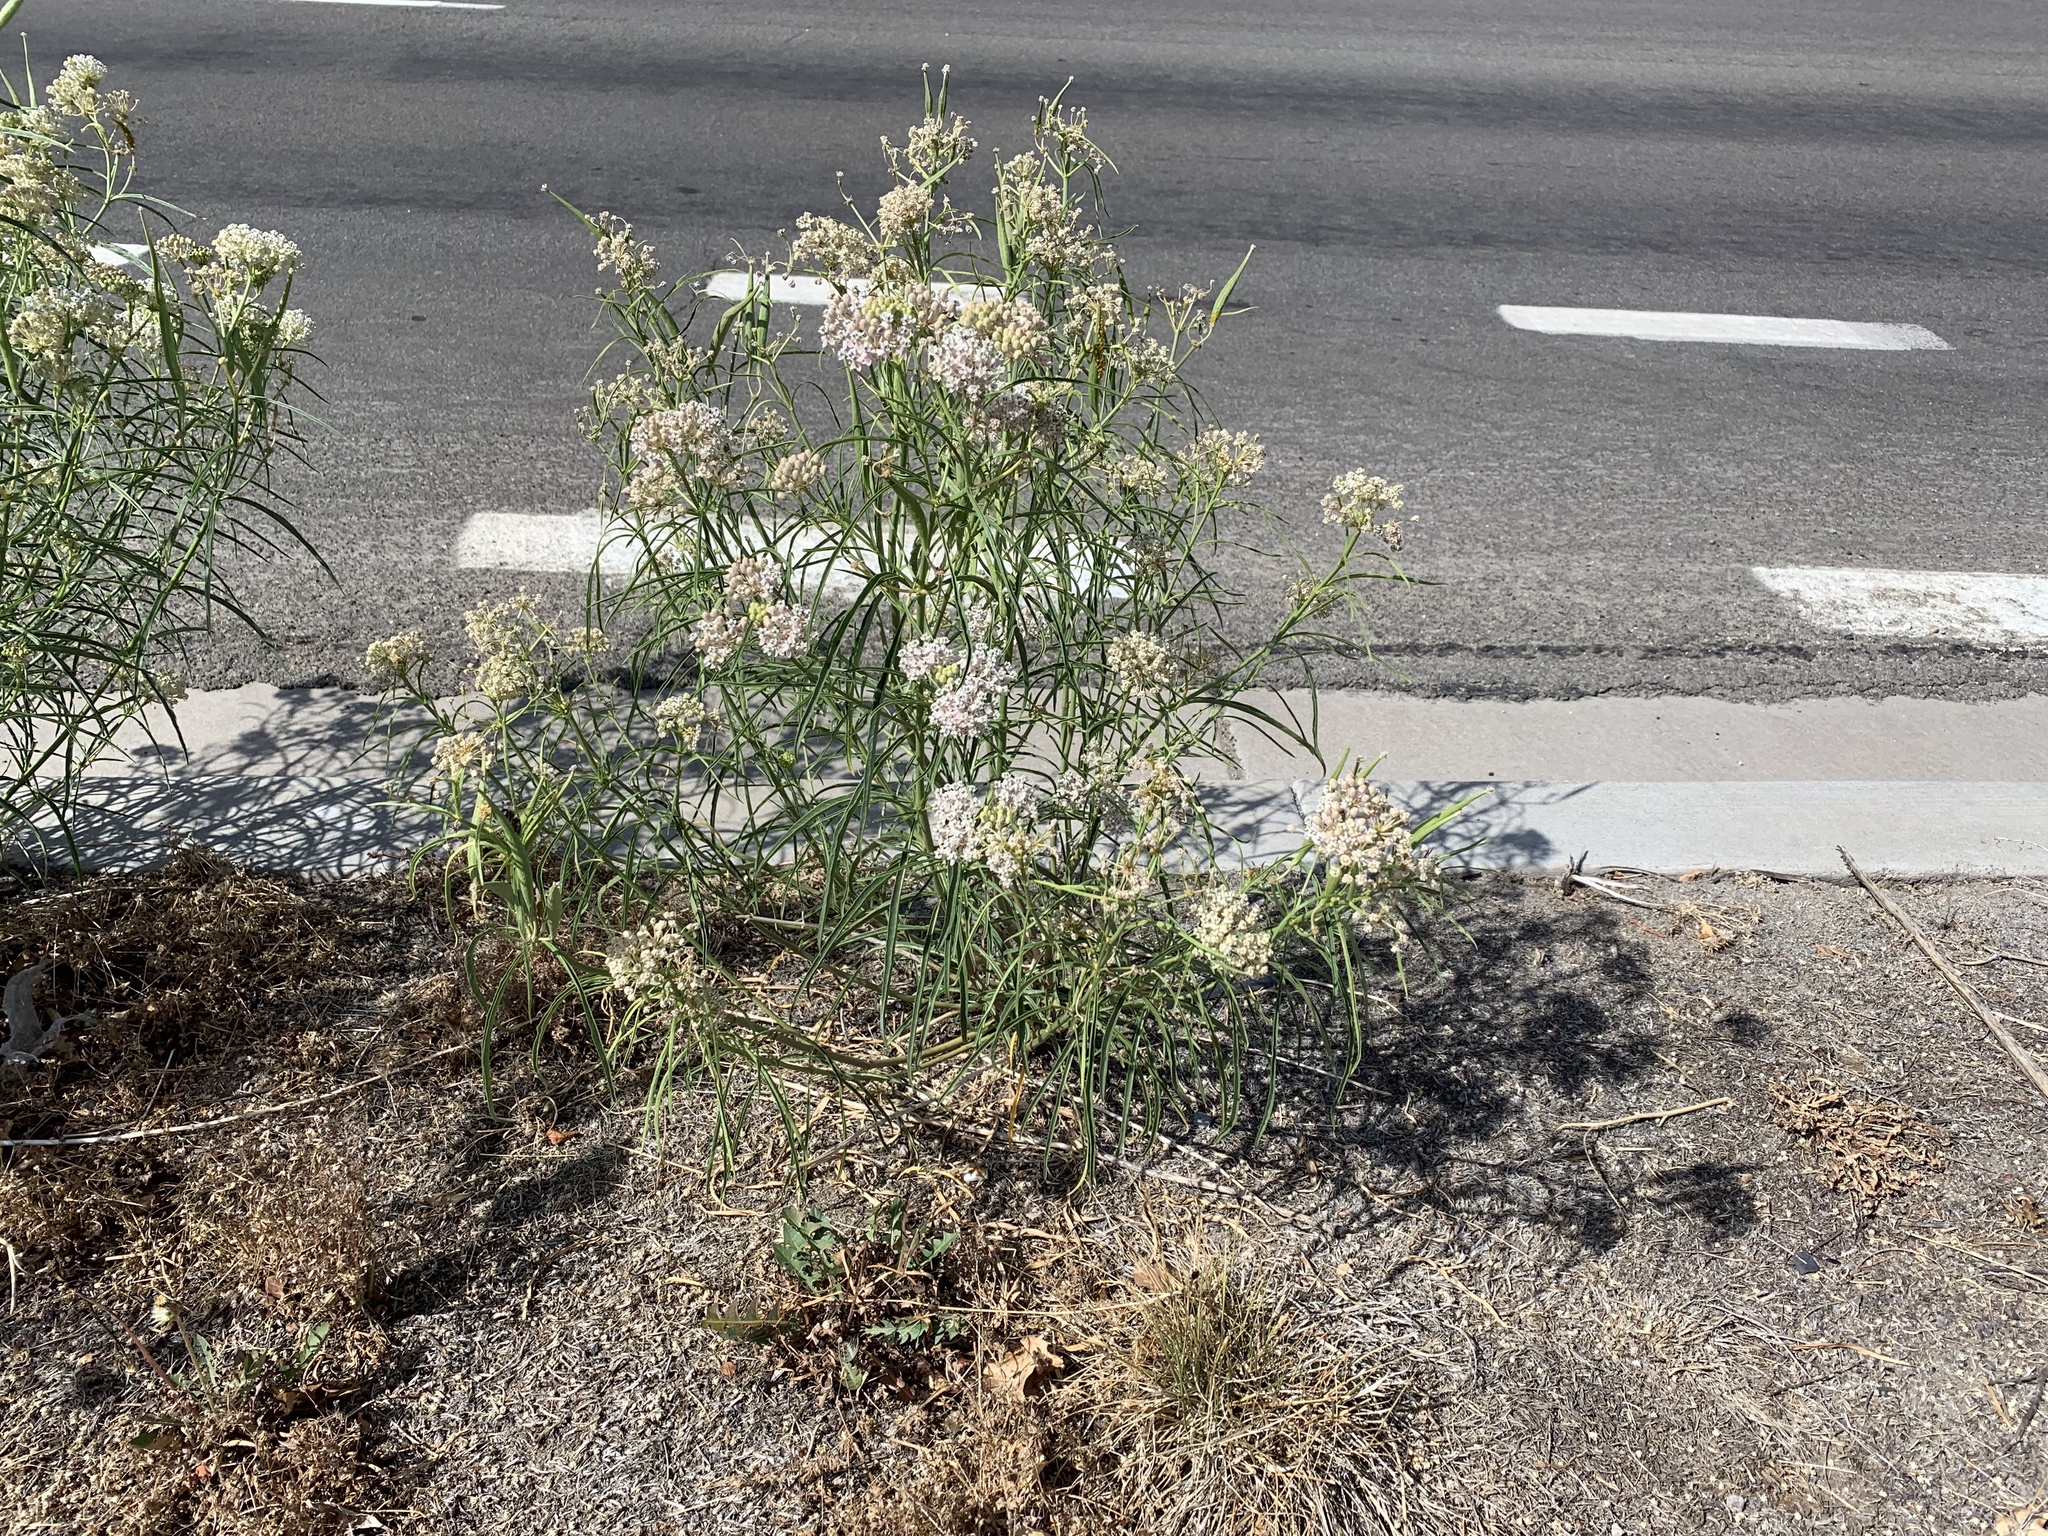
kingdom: Plantae
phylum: Tracheophyta
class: Magnoliopsida
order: Gentianales
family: Apocynaceae
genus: Asclepias
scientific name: Asclepias fascicularis
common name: Mexican milkweed
